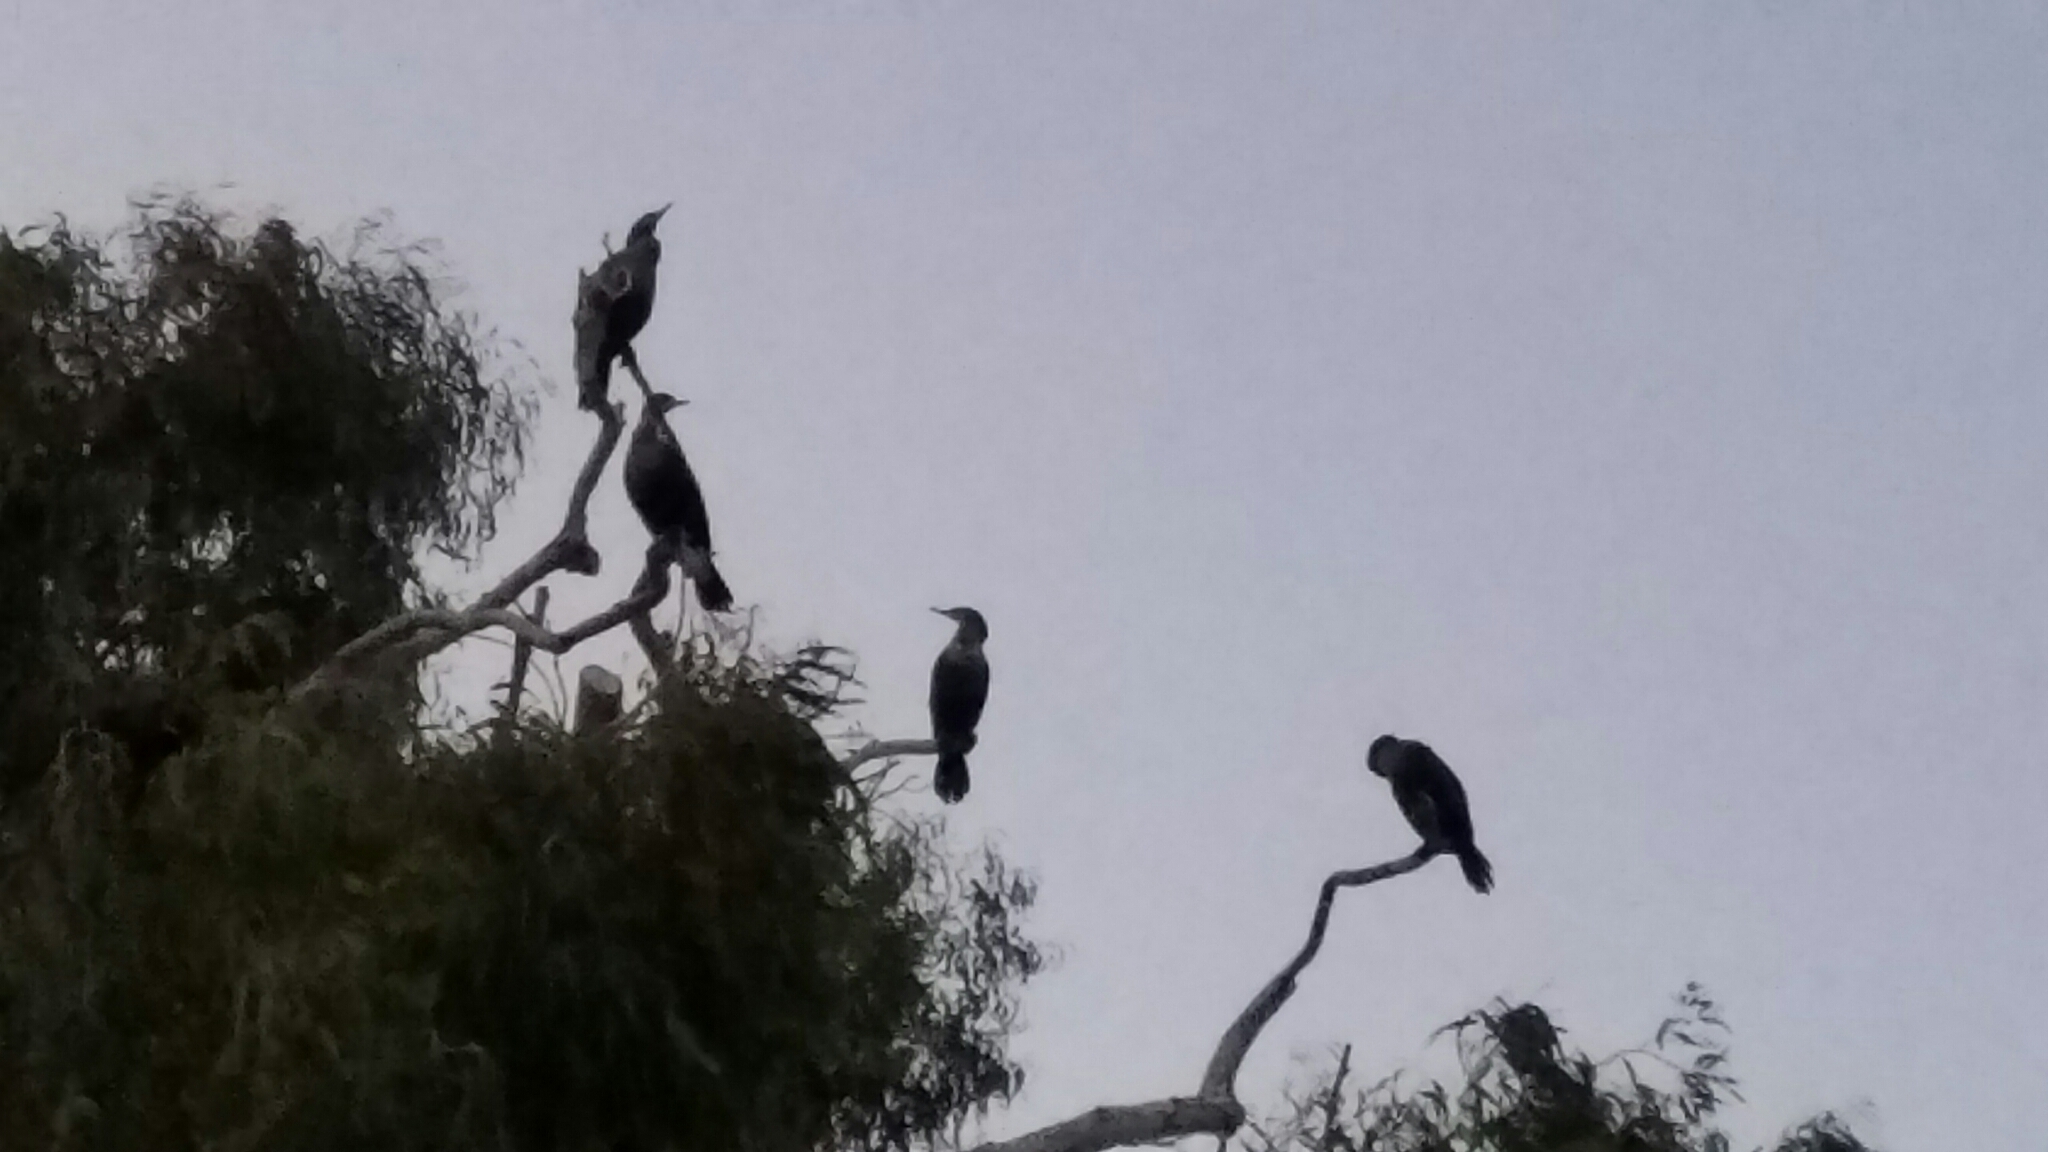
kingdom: Animalia
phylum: Chordata
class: Aves
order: Suliformes
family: Phalacrocoracidae
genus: Phalacrocorax
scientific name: Phalacrocorax auritus
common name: Double-crested cormorant
